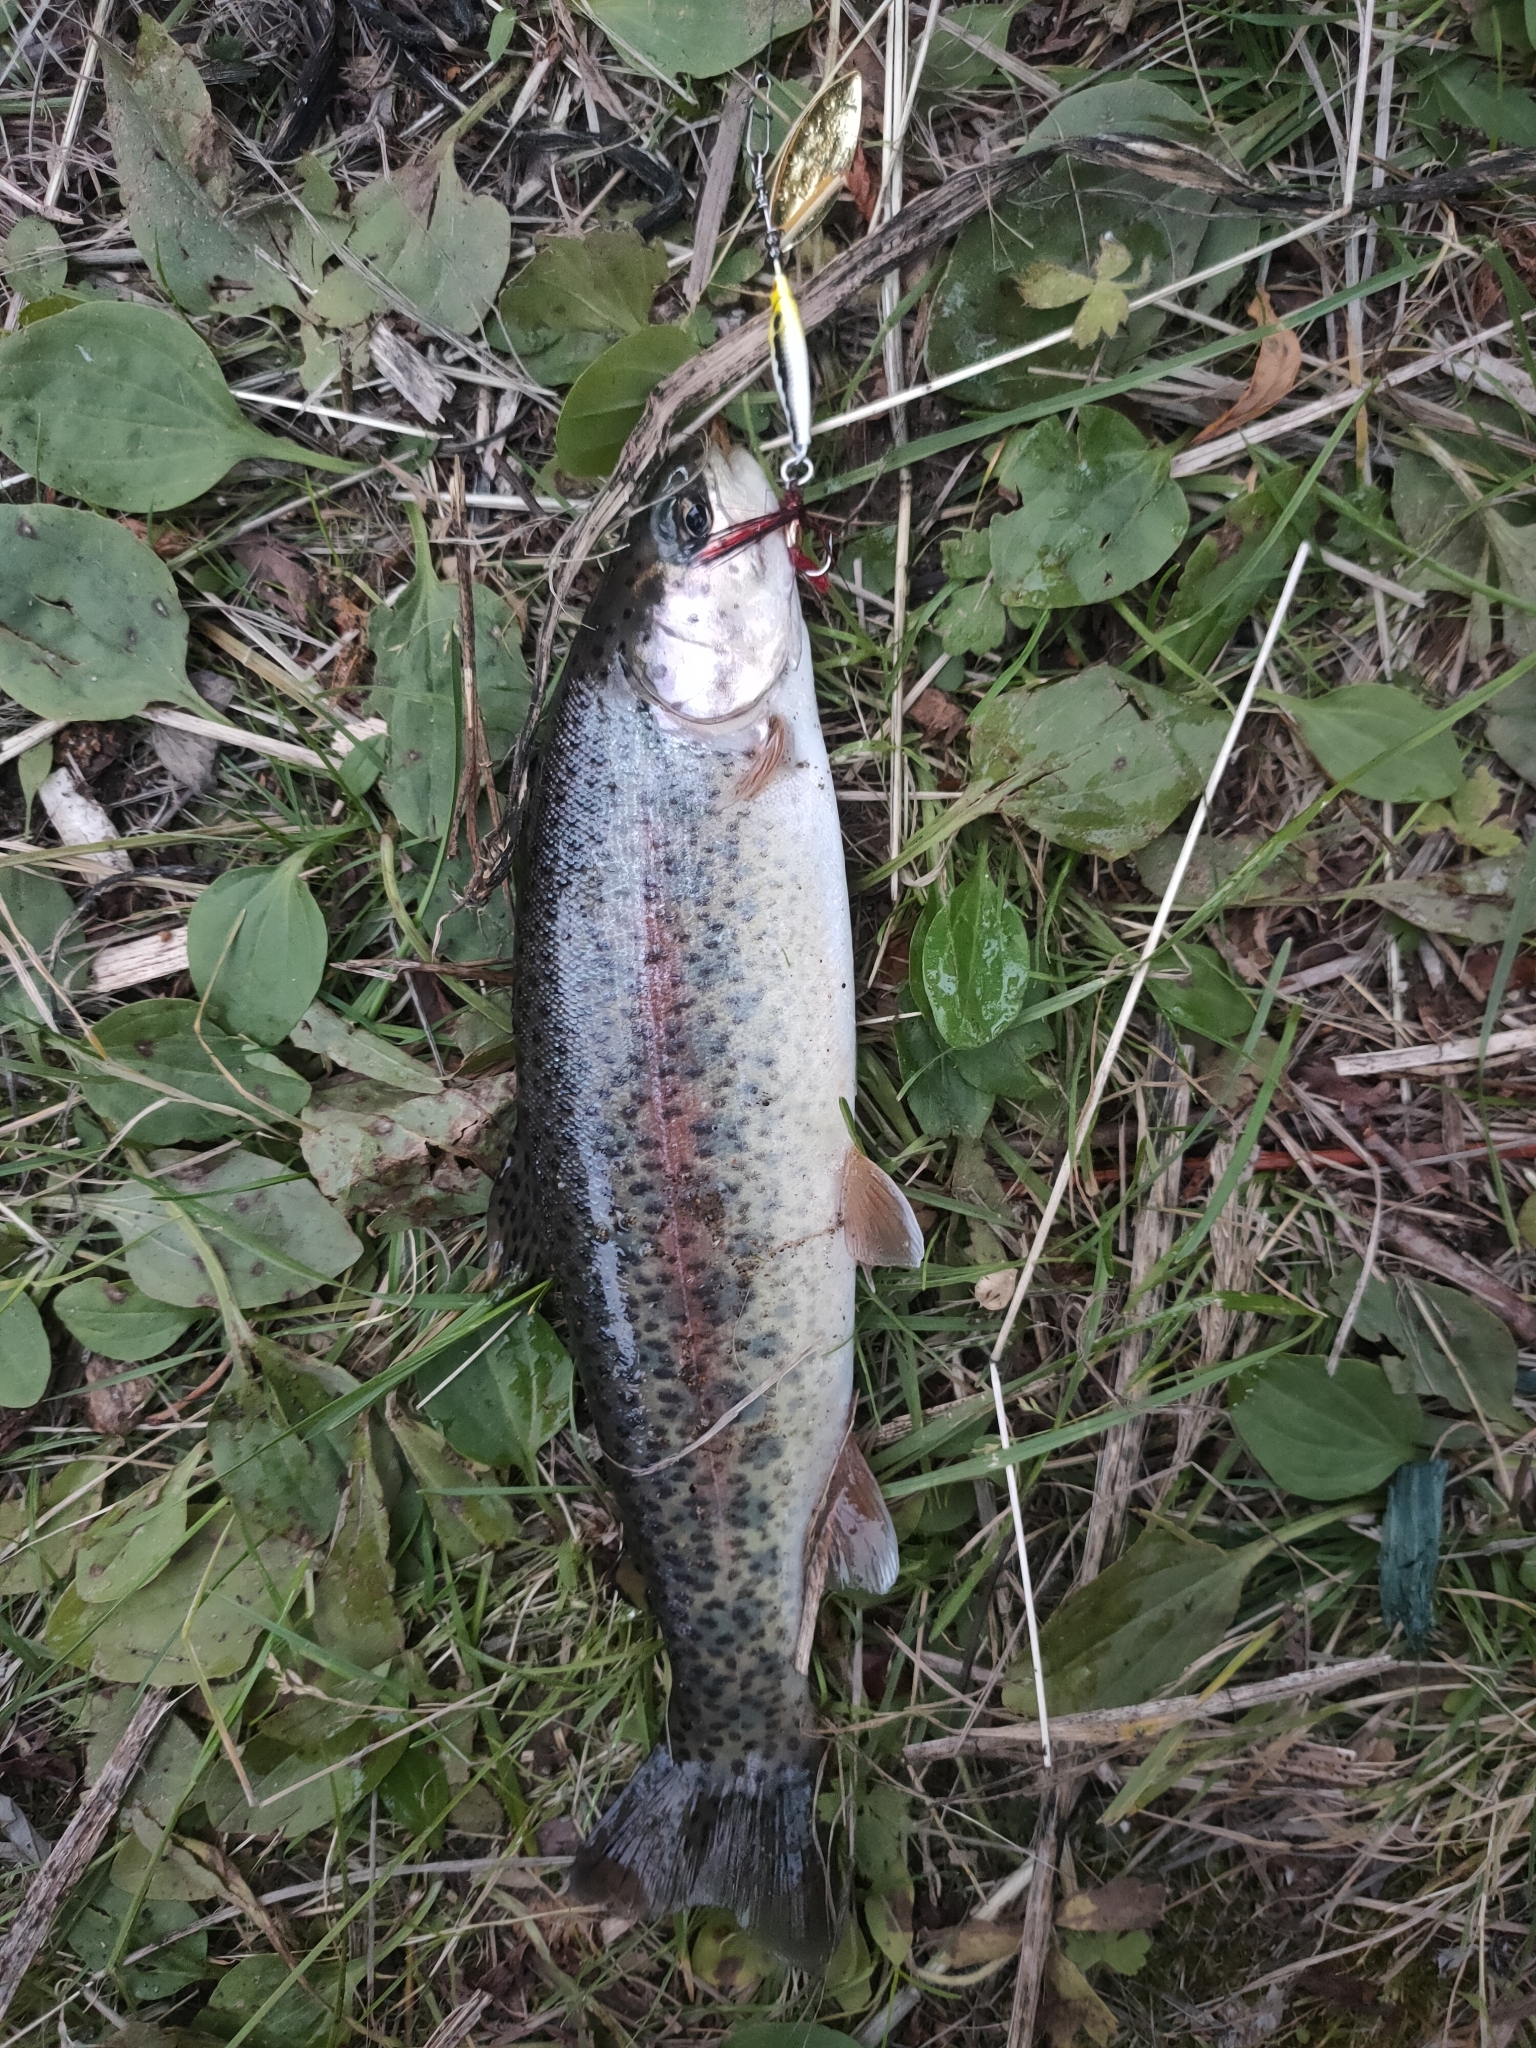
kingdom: Animalia
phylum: Chordata
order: Salmoniformes
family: Salmonidae
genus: Oncorhynchus
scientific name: Oncorhynchus mykiss
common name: Rainbow trout
